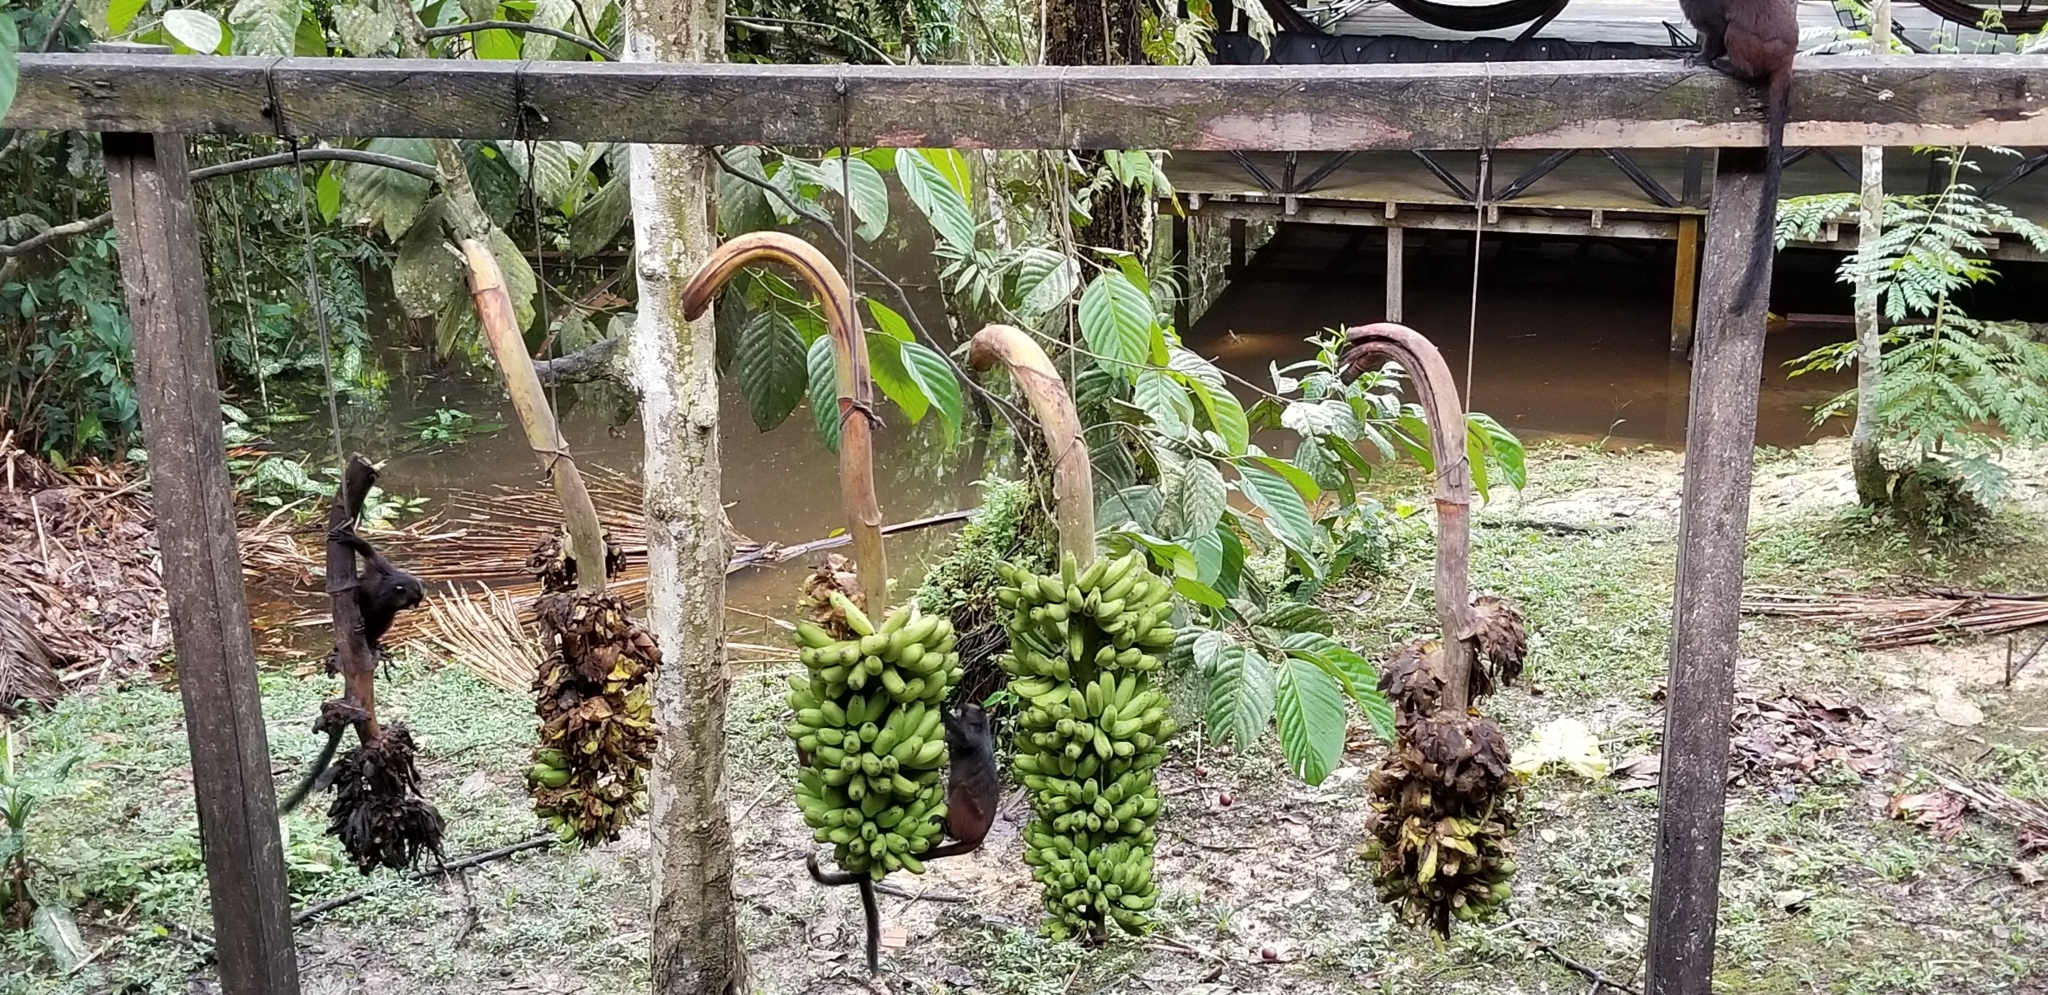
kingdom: Animalia
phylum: Chordata
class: Mammalia
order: Primates
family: Callitrichidae
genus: Leontocebus
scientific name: Leontocebus nigricollis
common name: Black-mantled tamarin
